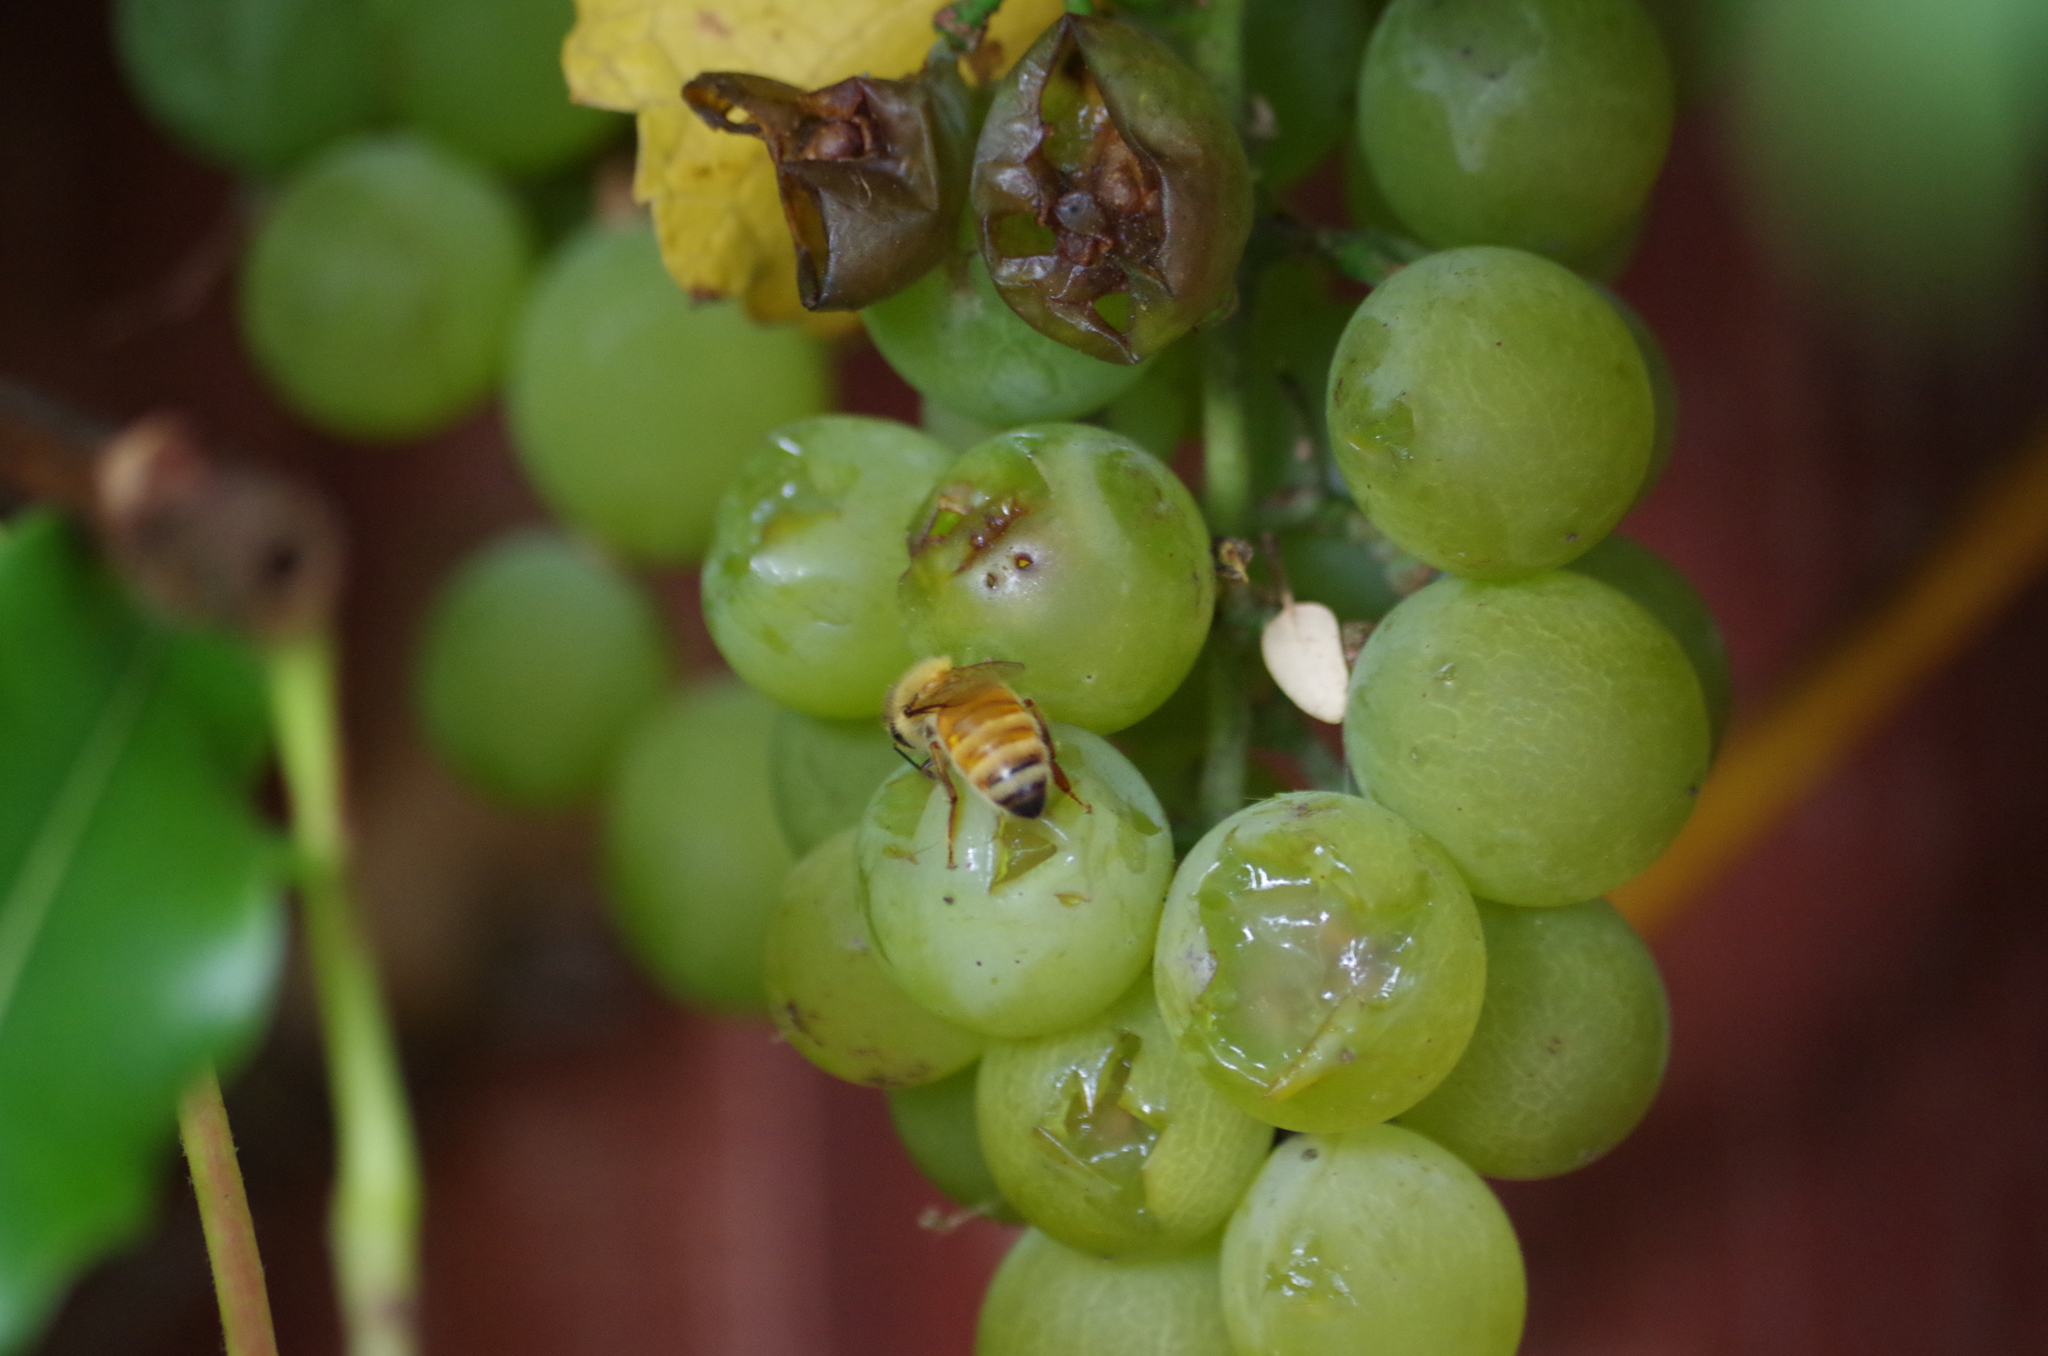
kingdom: Animalia
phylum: Arthropoda
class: Insecta
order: Hymenoptera
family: Apidae
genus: Apis
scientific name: Apis mellifera
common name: Honey bee
